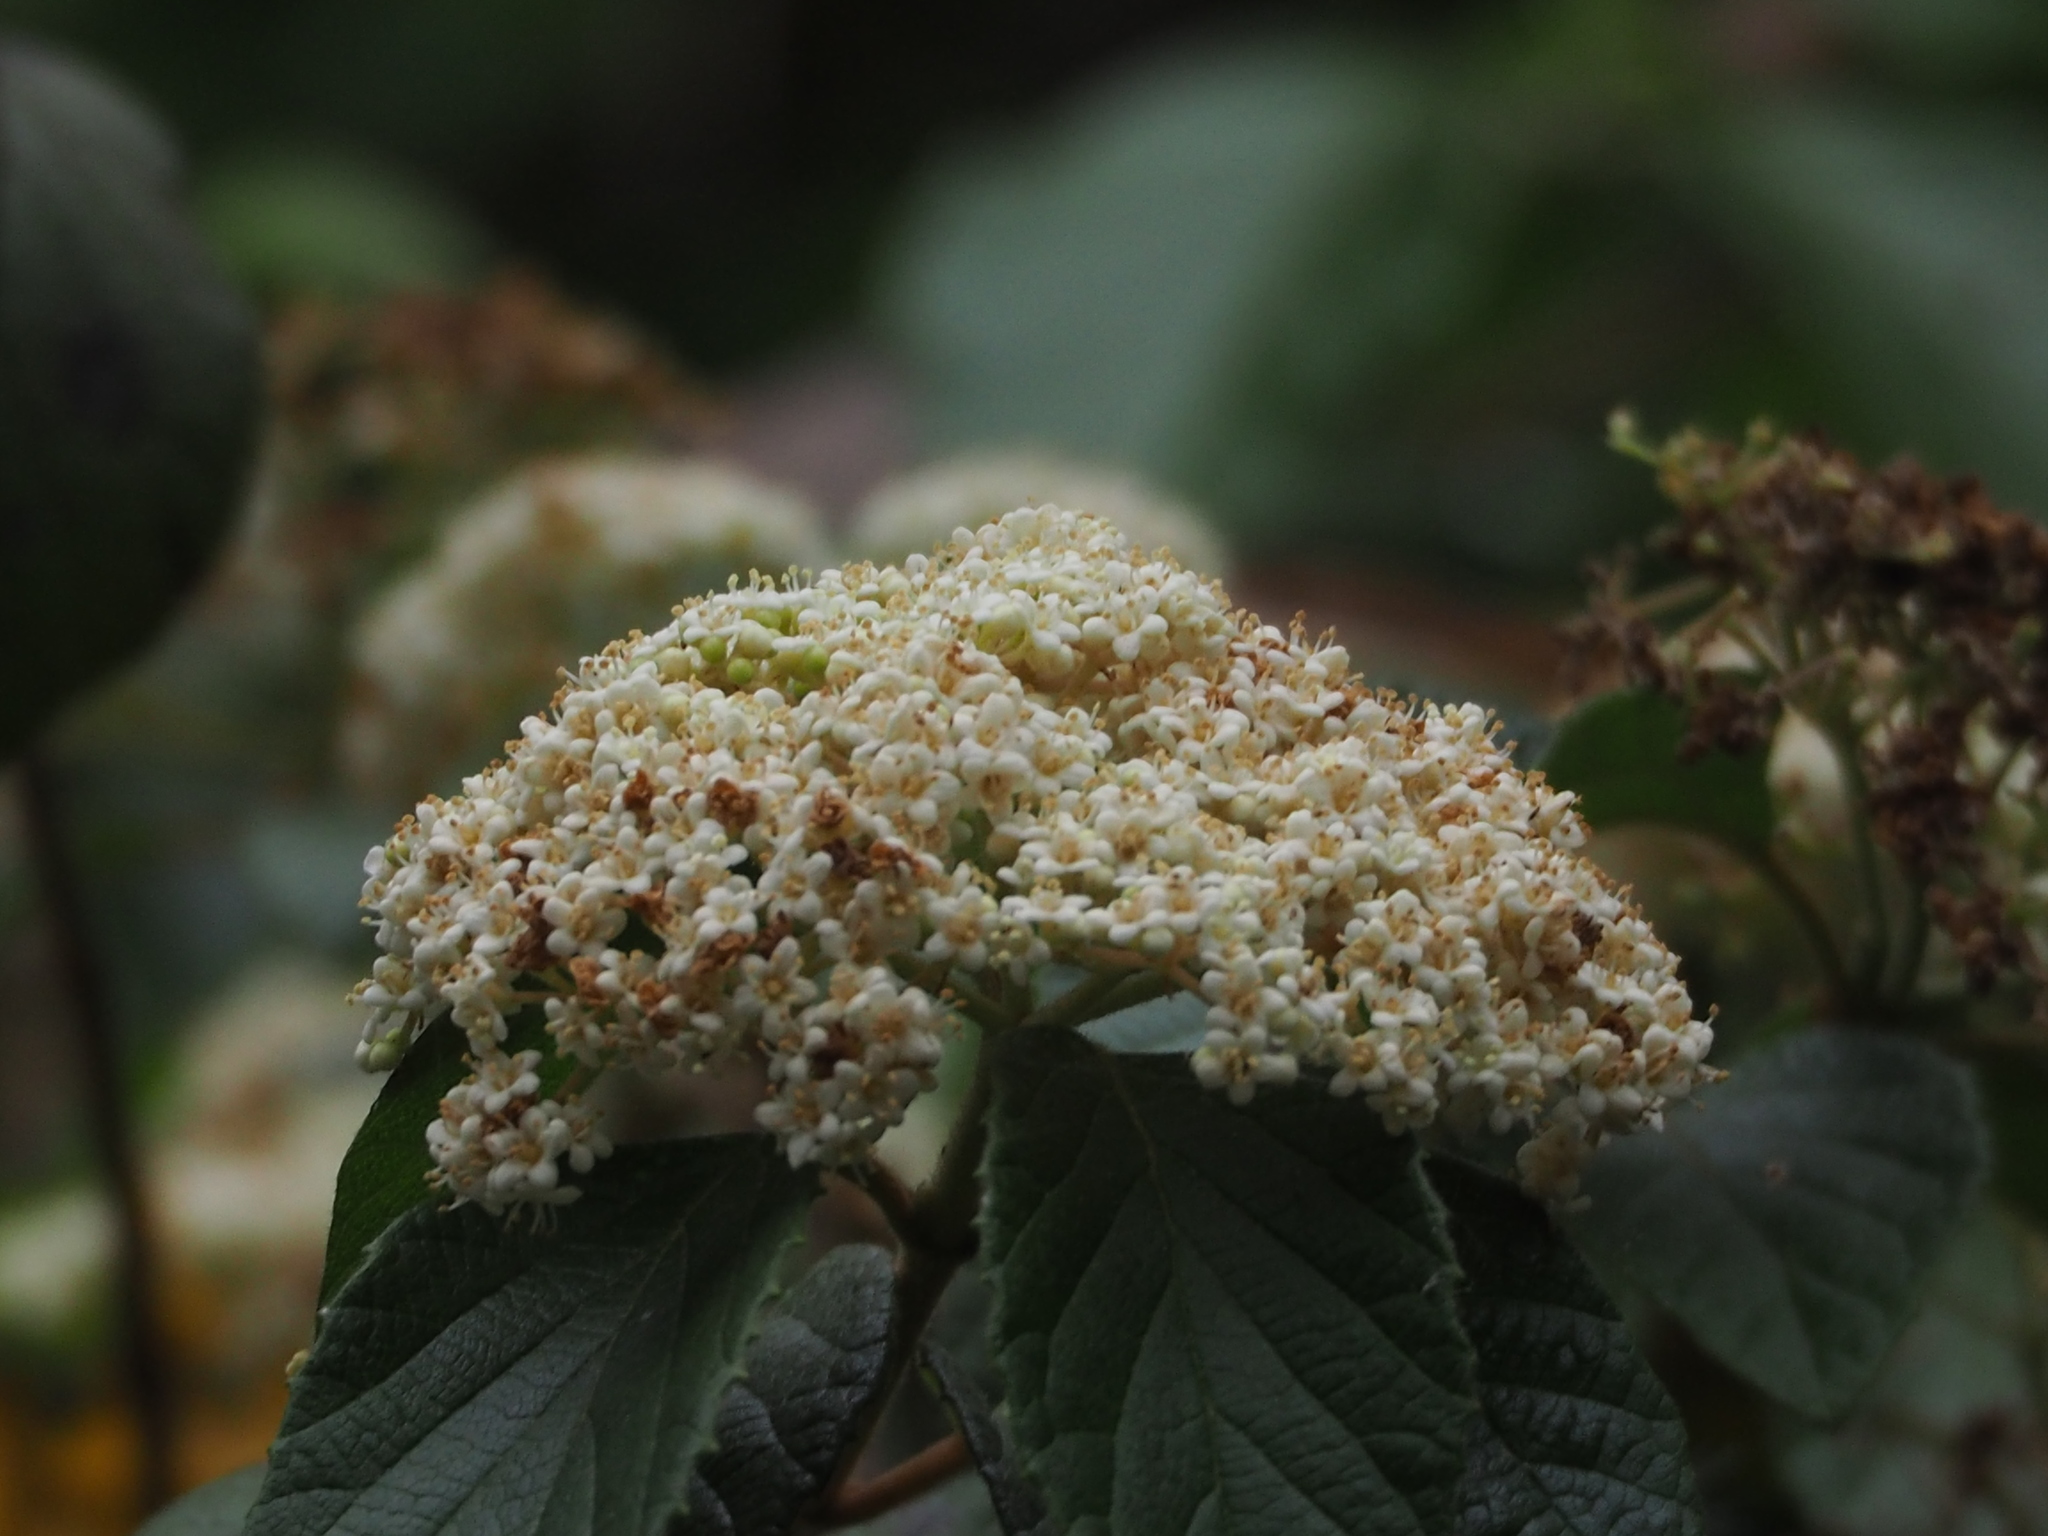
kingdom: Plantae
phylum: Tracheophyta
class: Magnoliopsida
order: Dipsacales
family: Viburnaceae
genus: Viburnum
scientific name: Viburnum luzonicum
